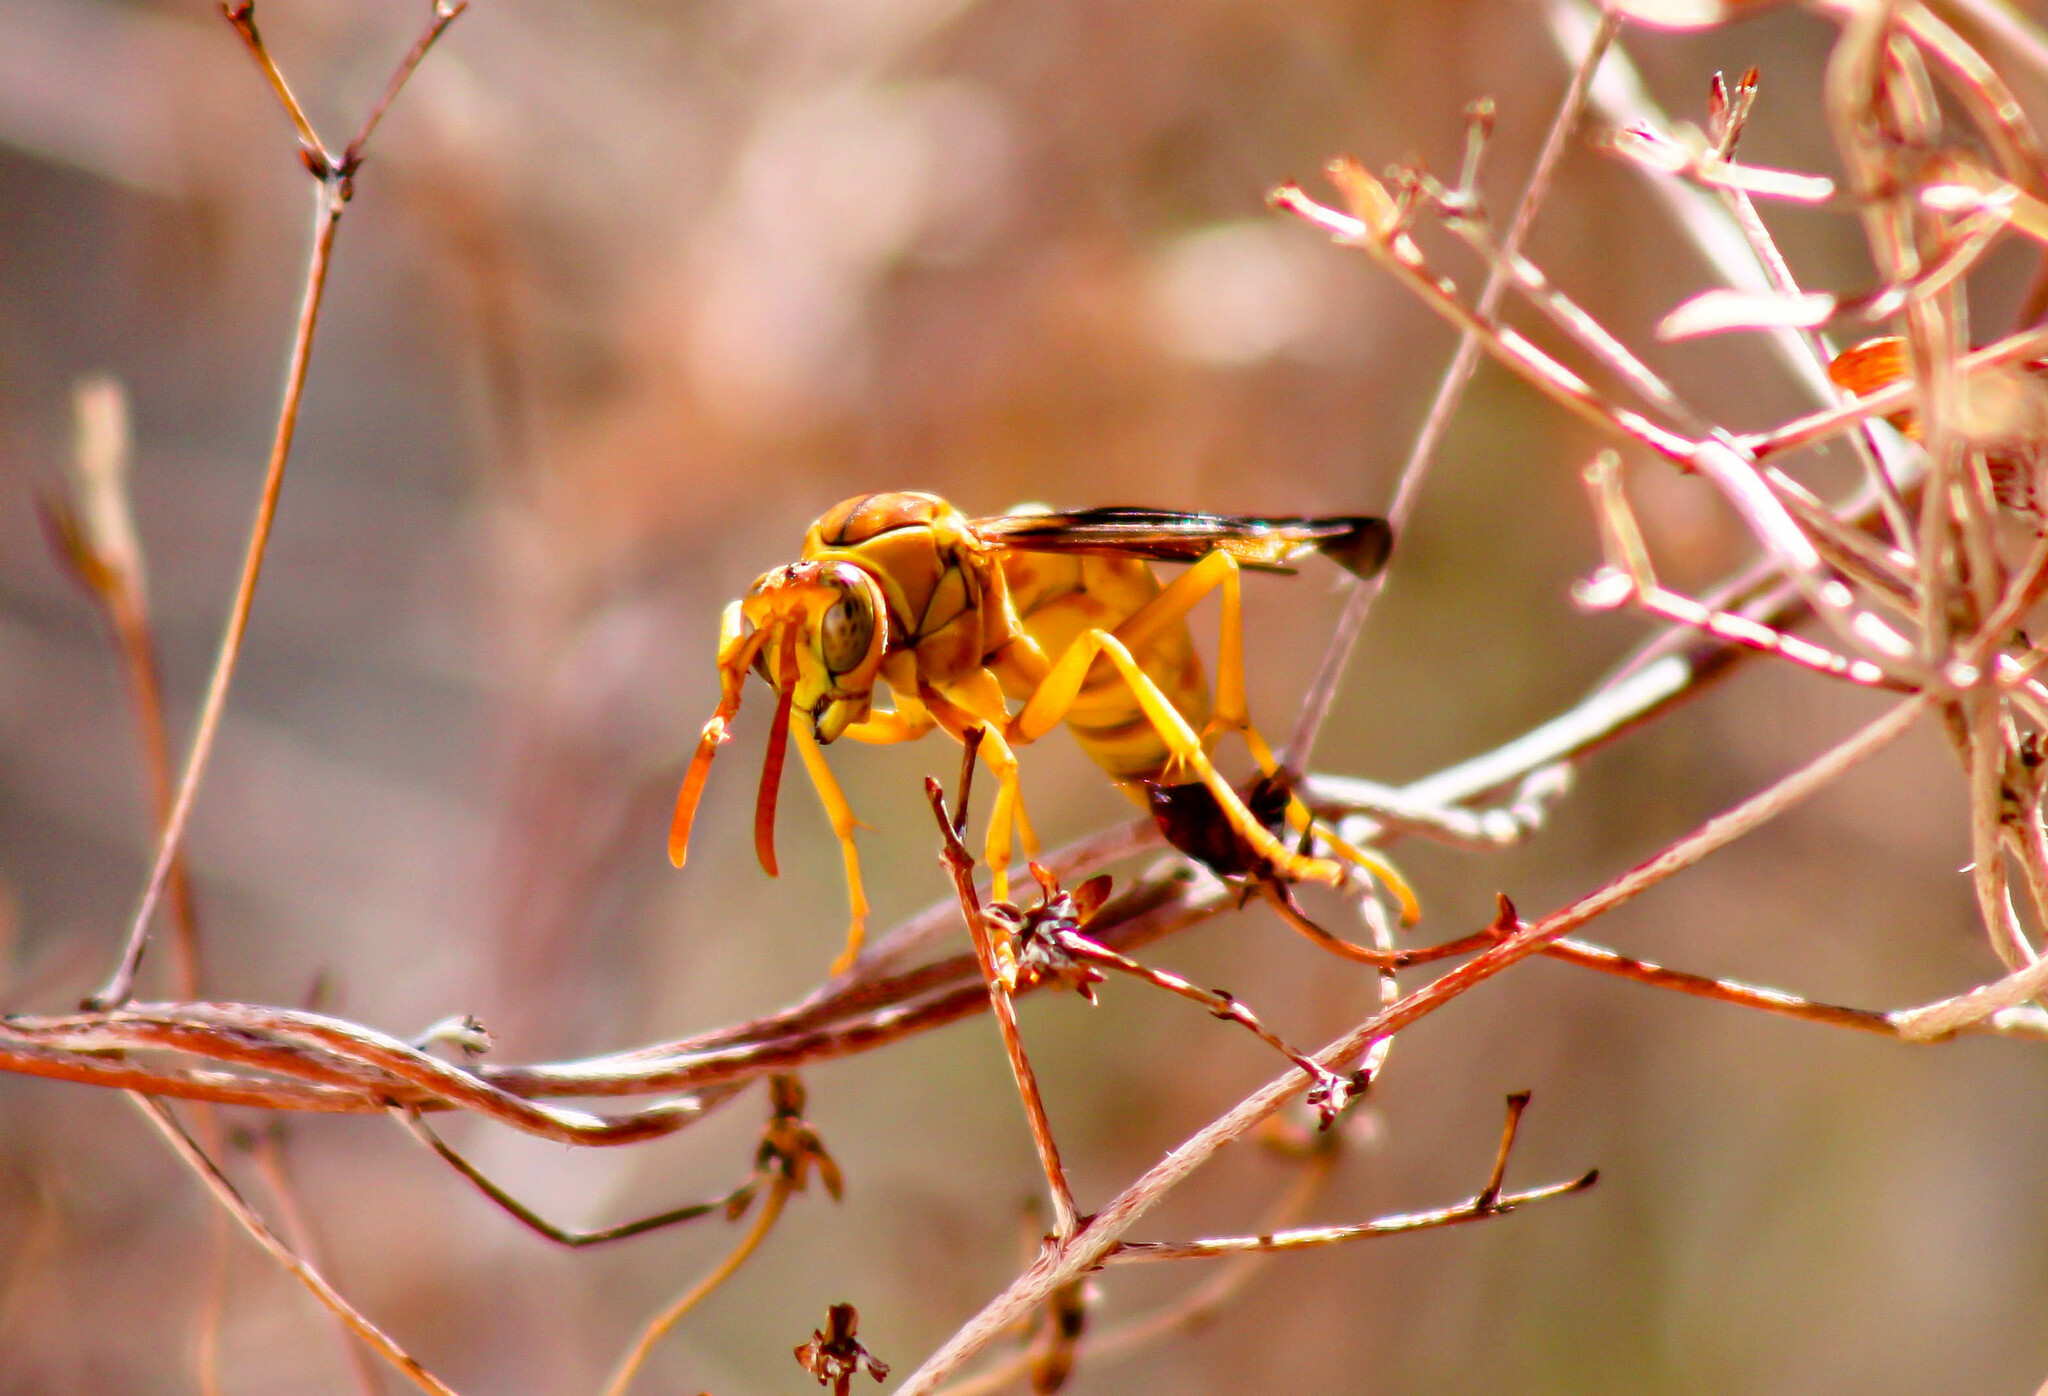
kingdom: Animalia
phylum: Arthropoda
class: Insecta
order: Hymenoptera
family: Eumenidae
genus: Polistes
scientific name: Polistes flavus
